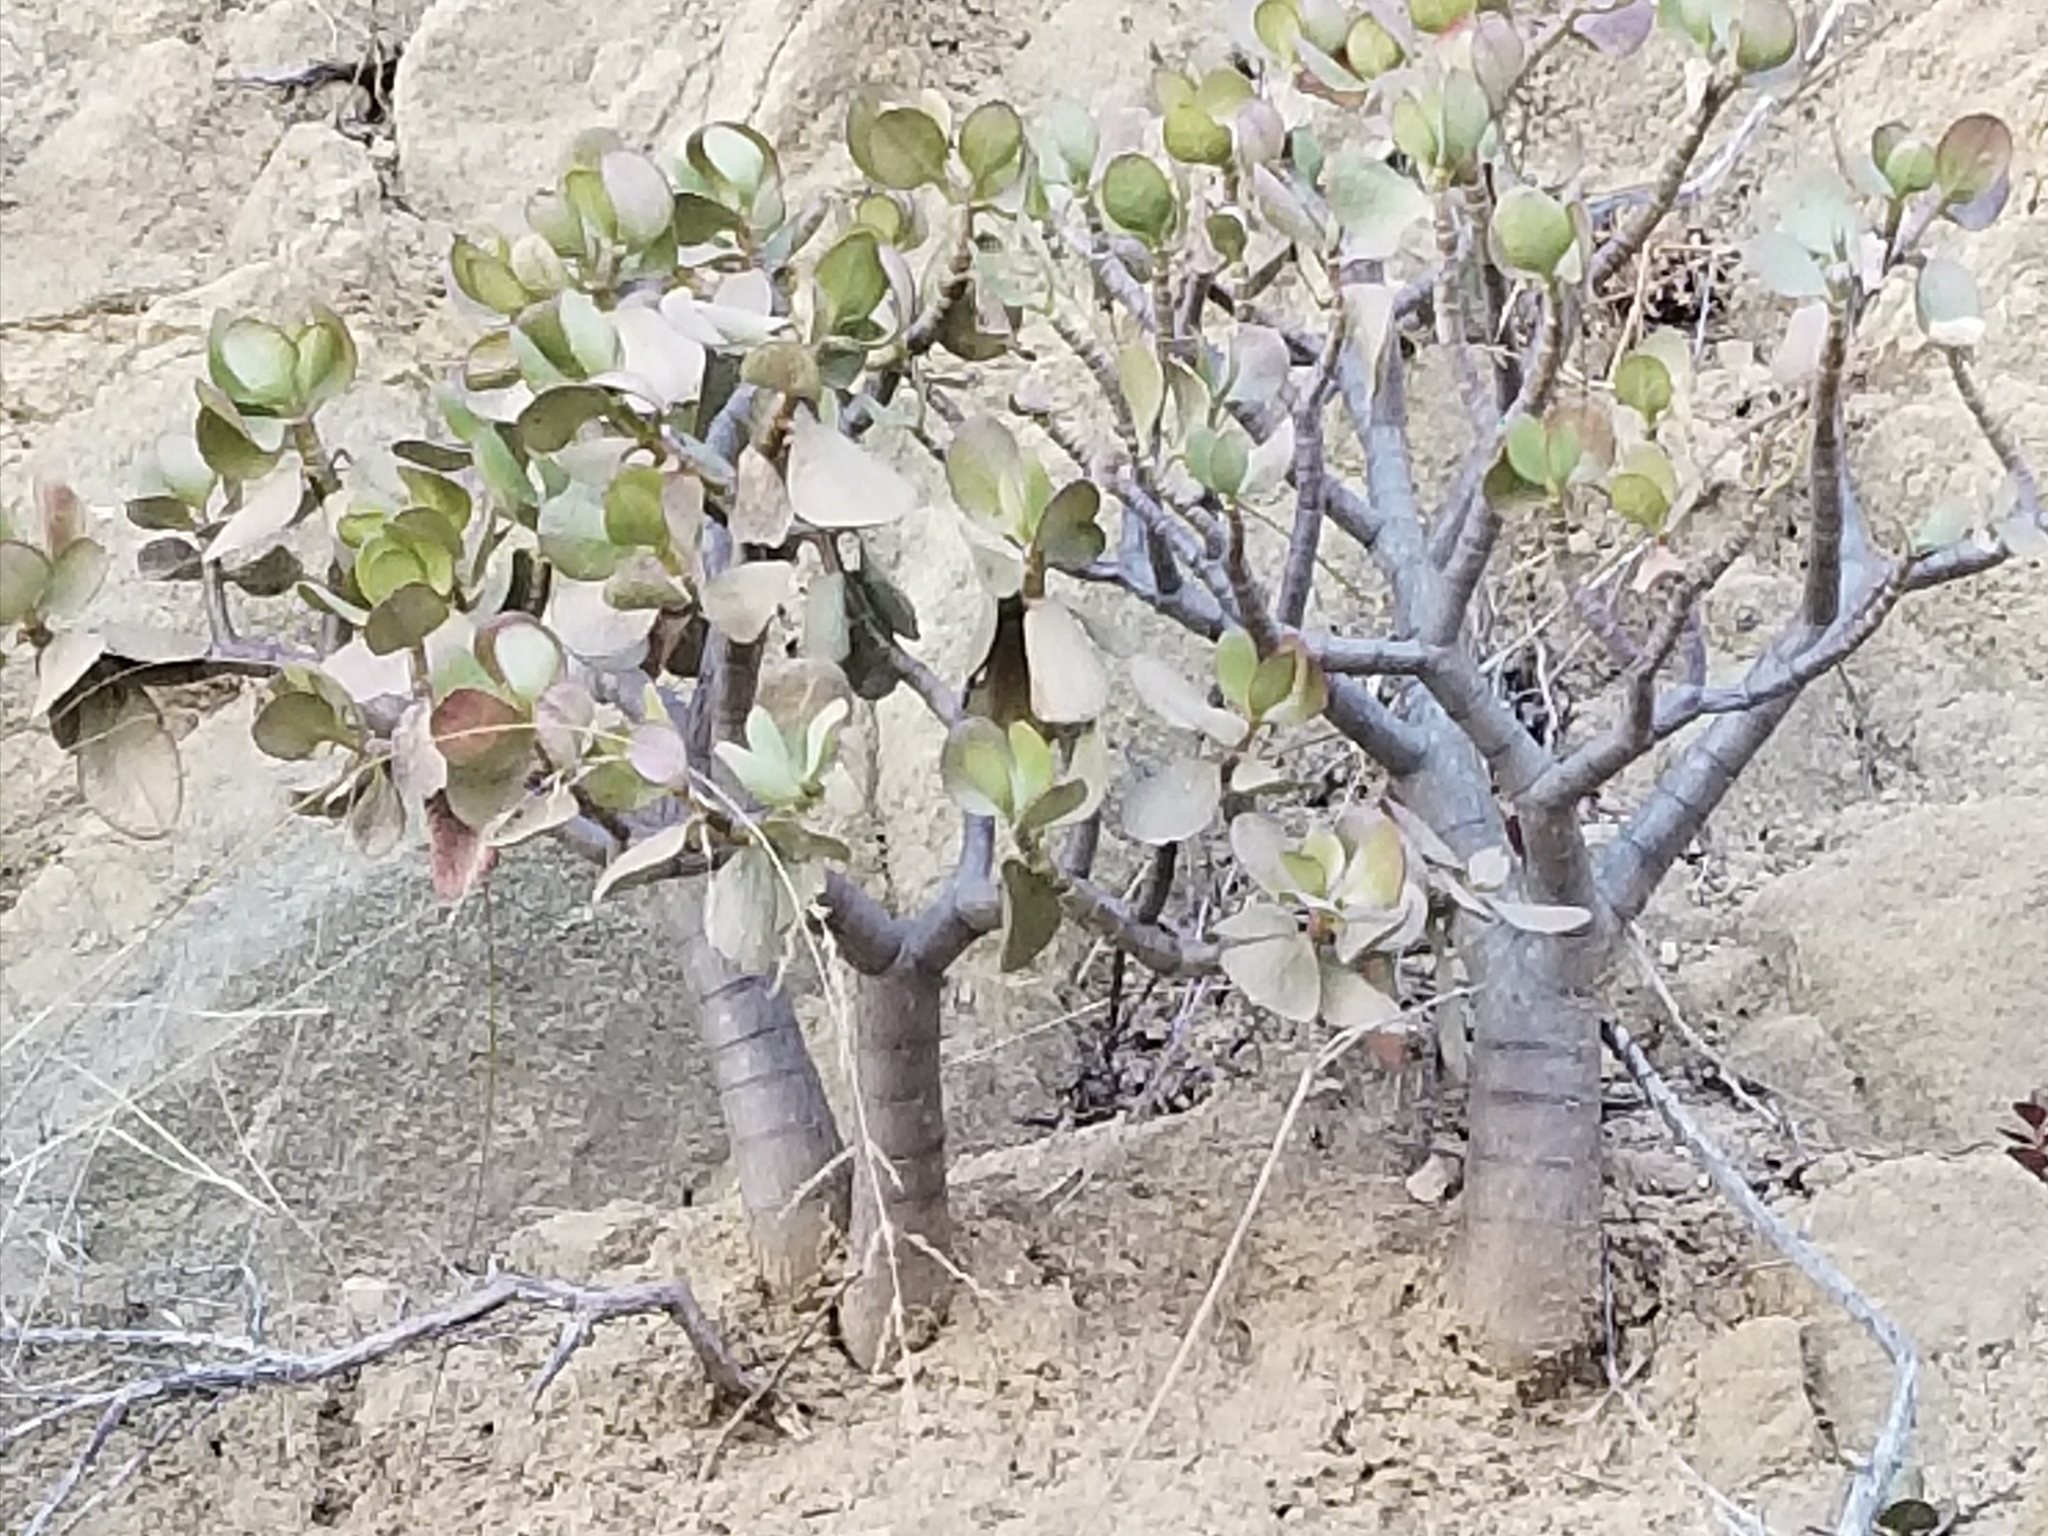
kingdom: Plantae
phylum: Tracheophyta
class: Magnoliopsida
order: Saxifragales
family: Crassulaceae
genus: Crassula
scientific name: Crassula ovata
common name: Jade plant
